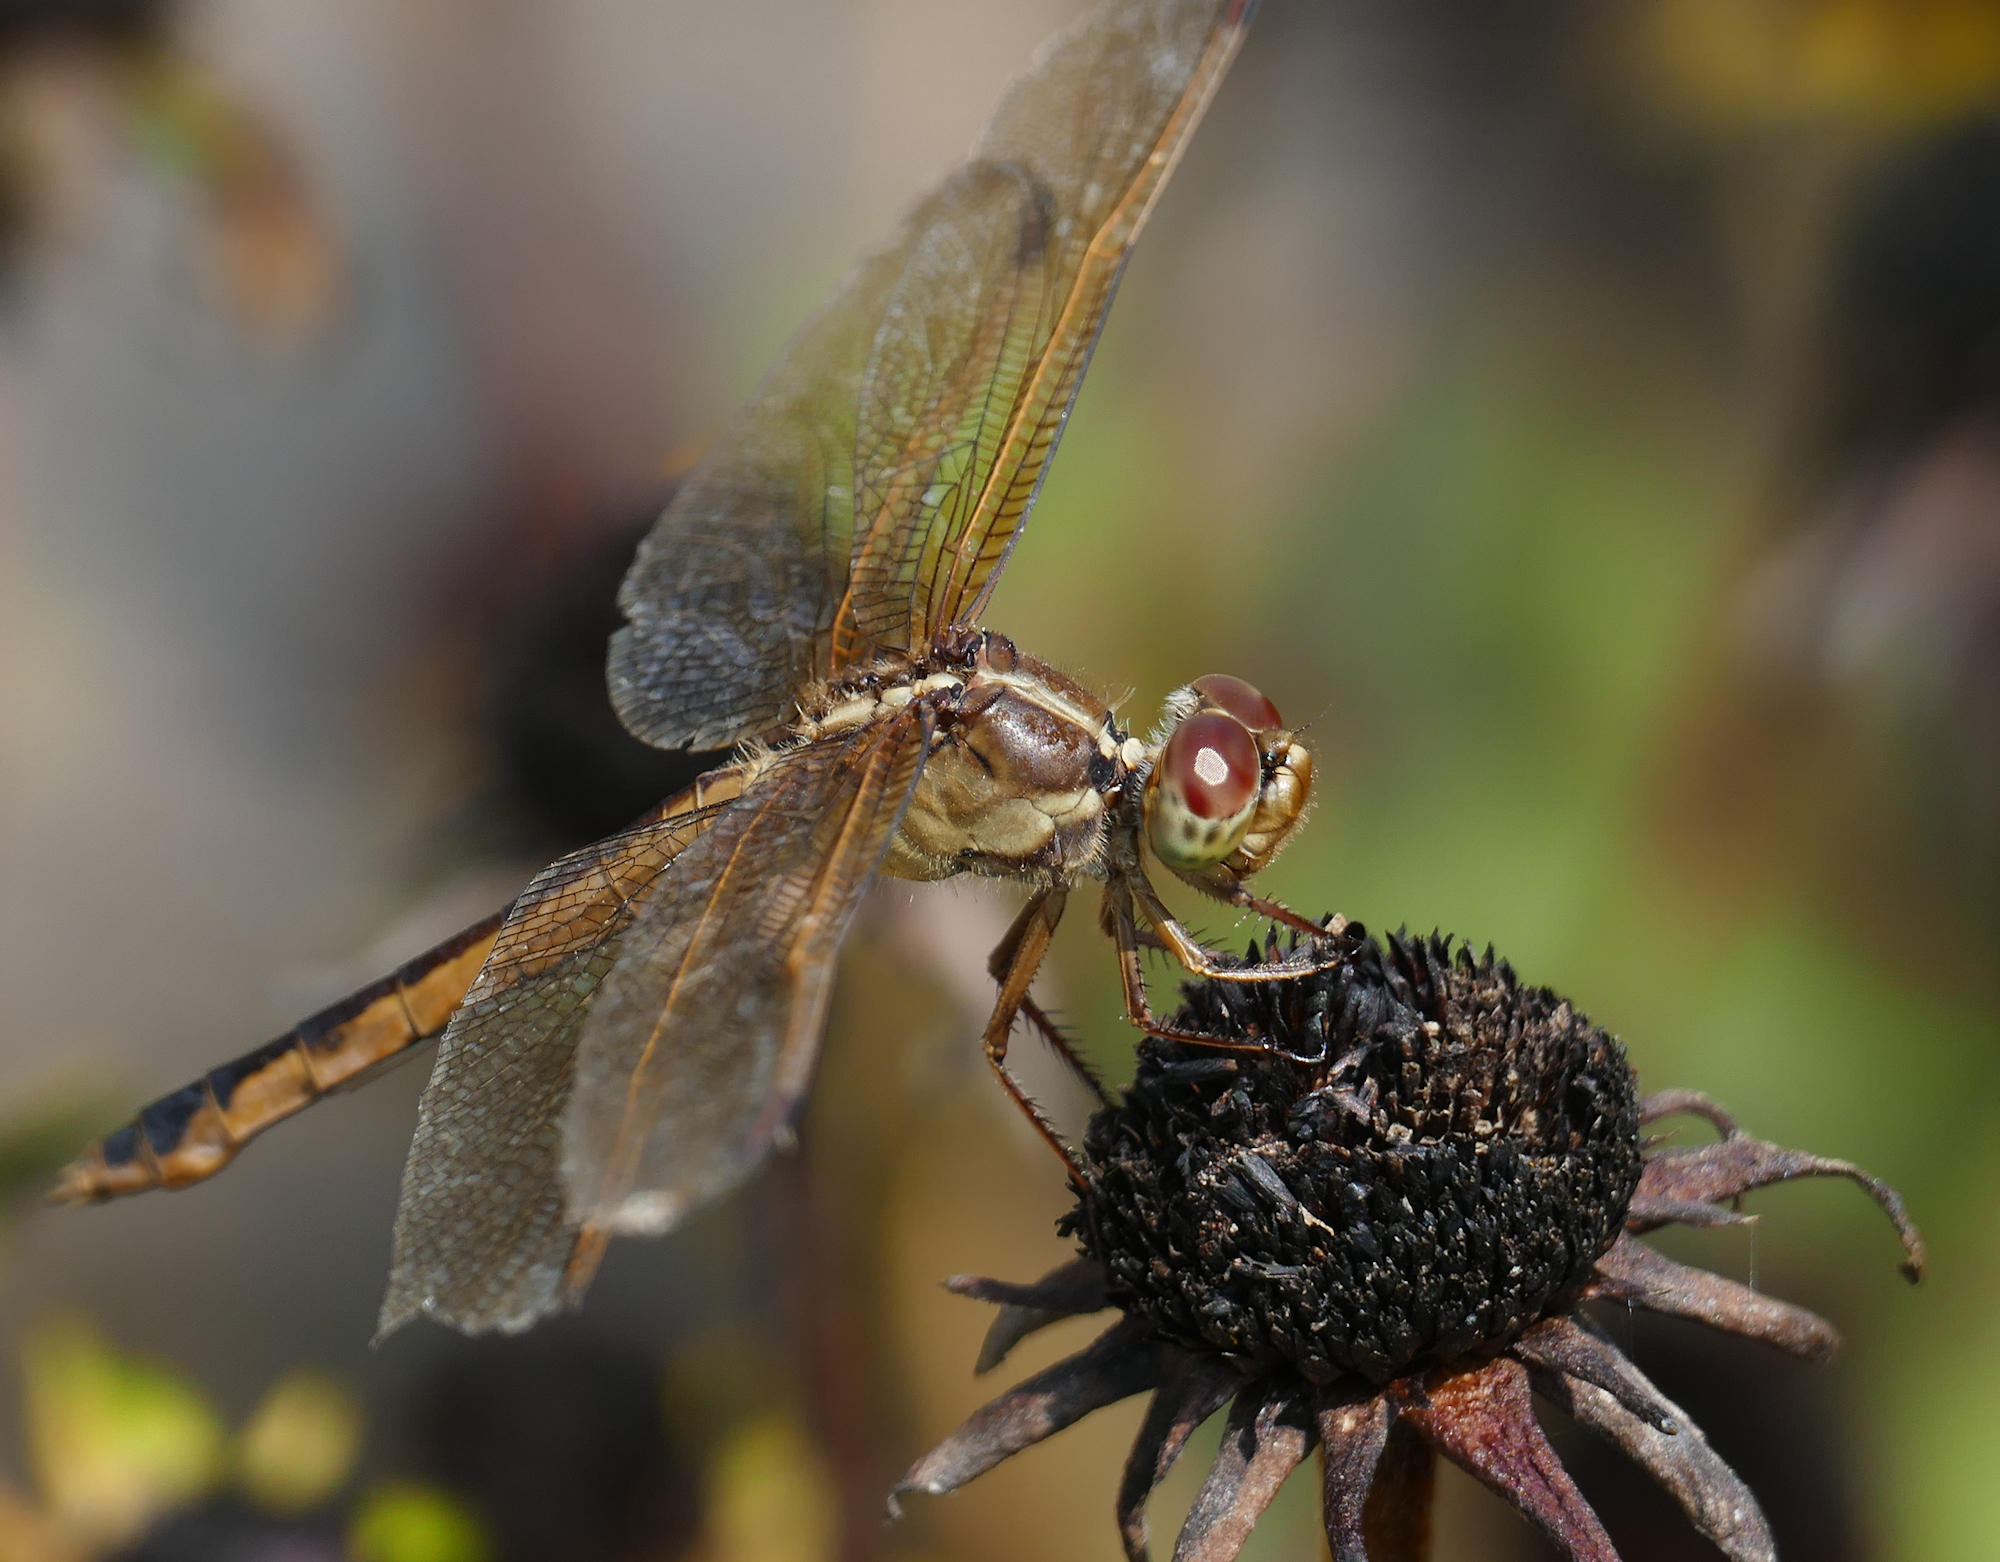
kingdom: Animalia
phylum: Arthropoda
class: Insecta
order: Odonata
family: Libellulidae
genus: Libellula
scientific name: Libellula needhami
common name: Needham's skimmer
